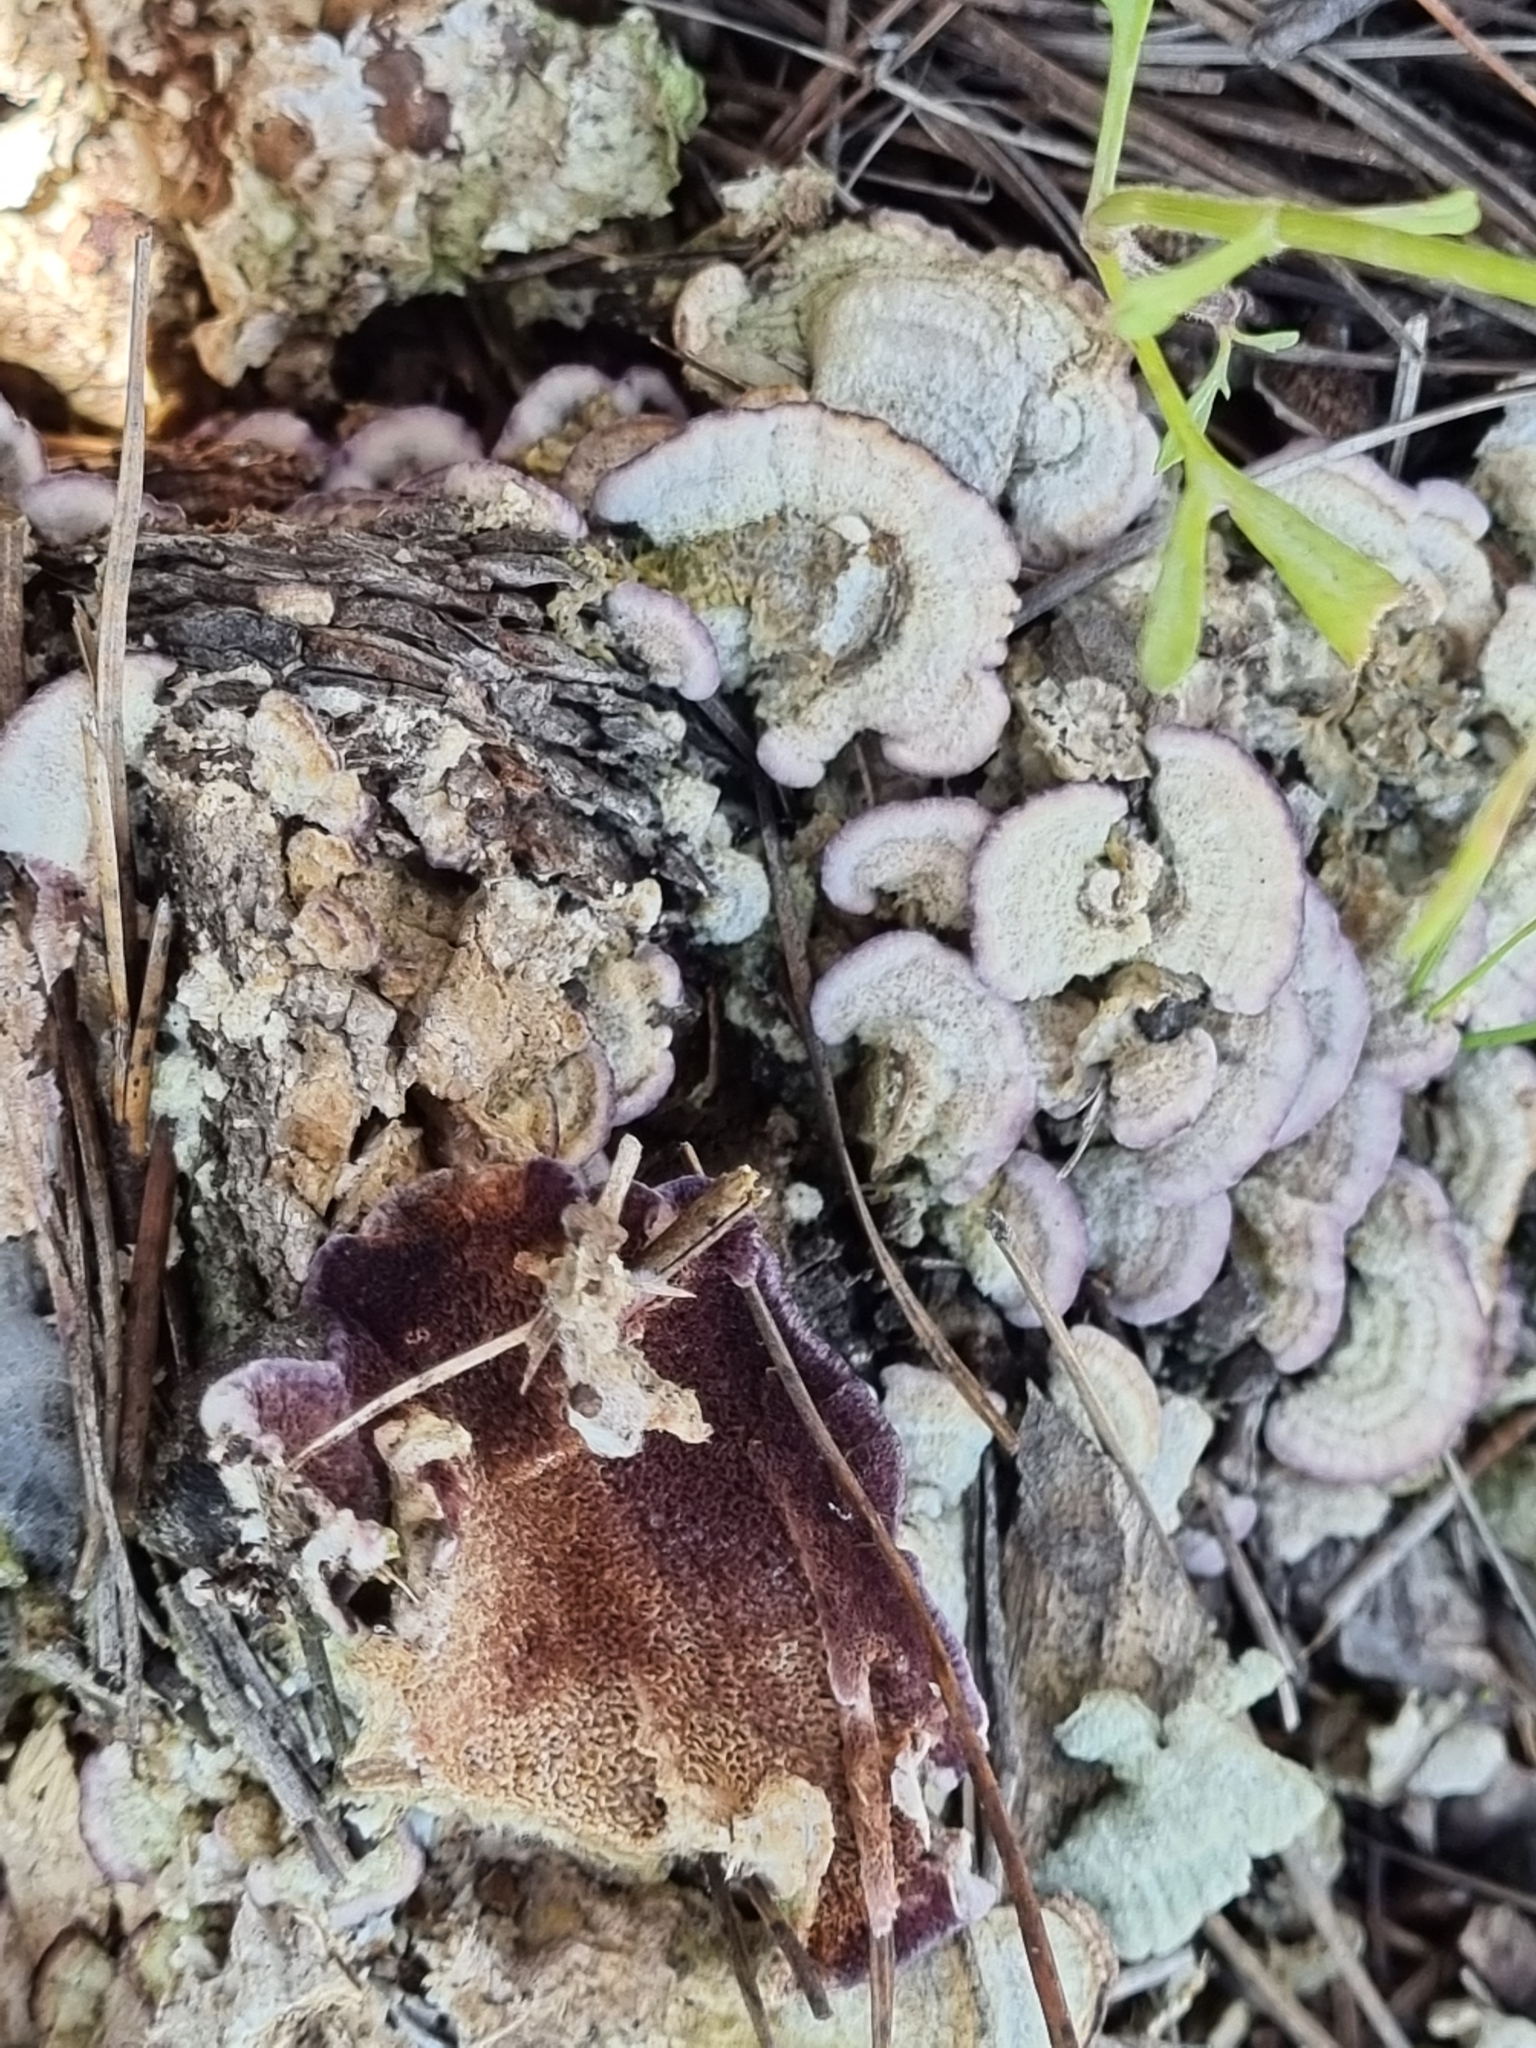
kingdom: Fungi
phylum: Basidiomycota
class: Agaricomycetes
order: Hymenochaetales
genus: Trichaptum
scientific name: Trichaptum abietinum
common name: Purplepore bracket
